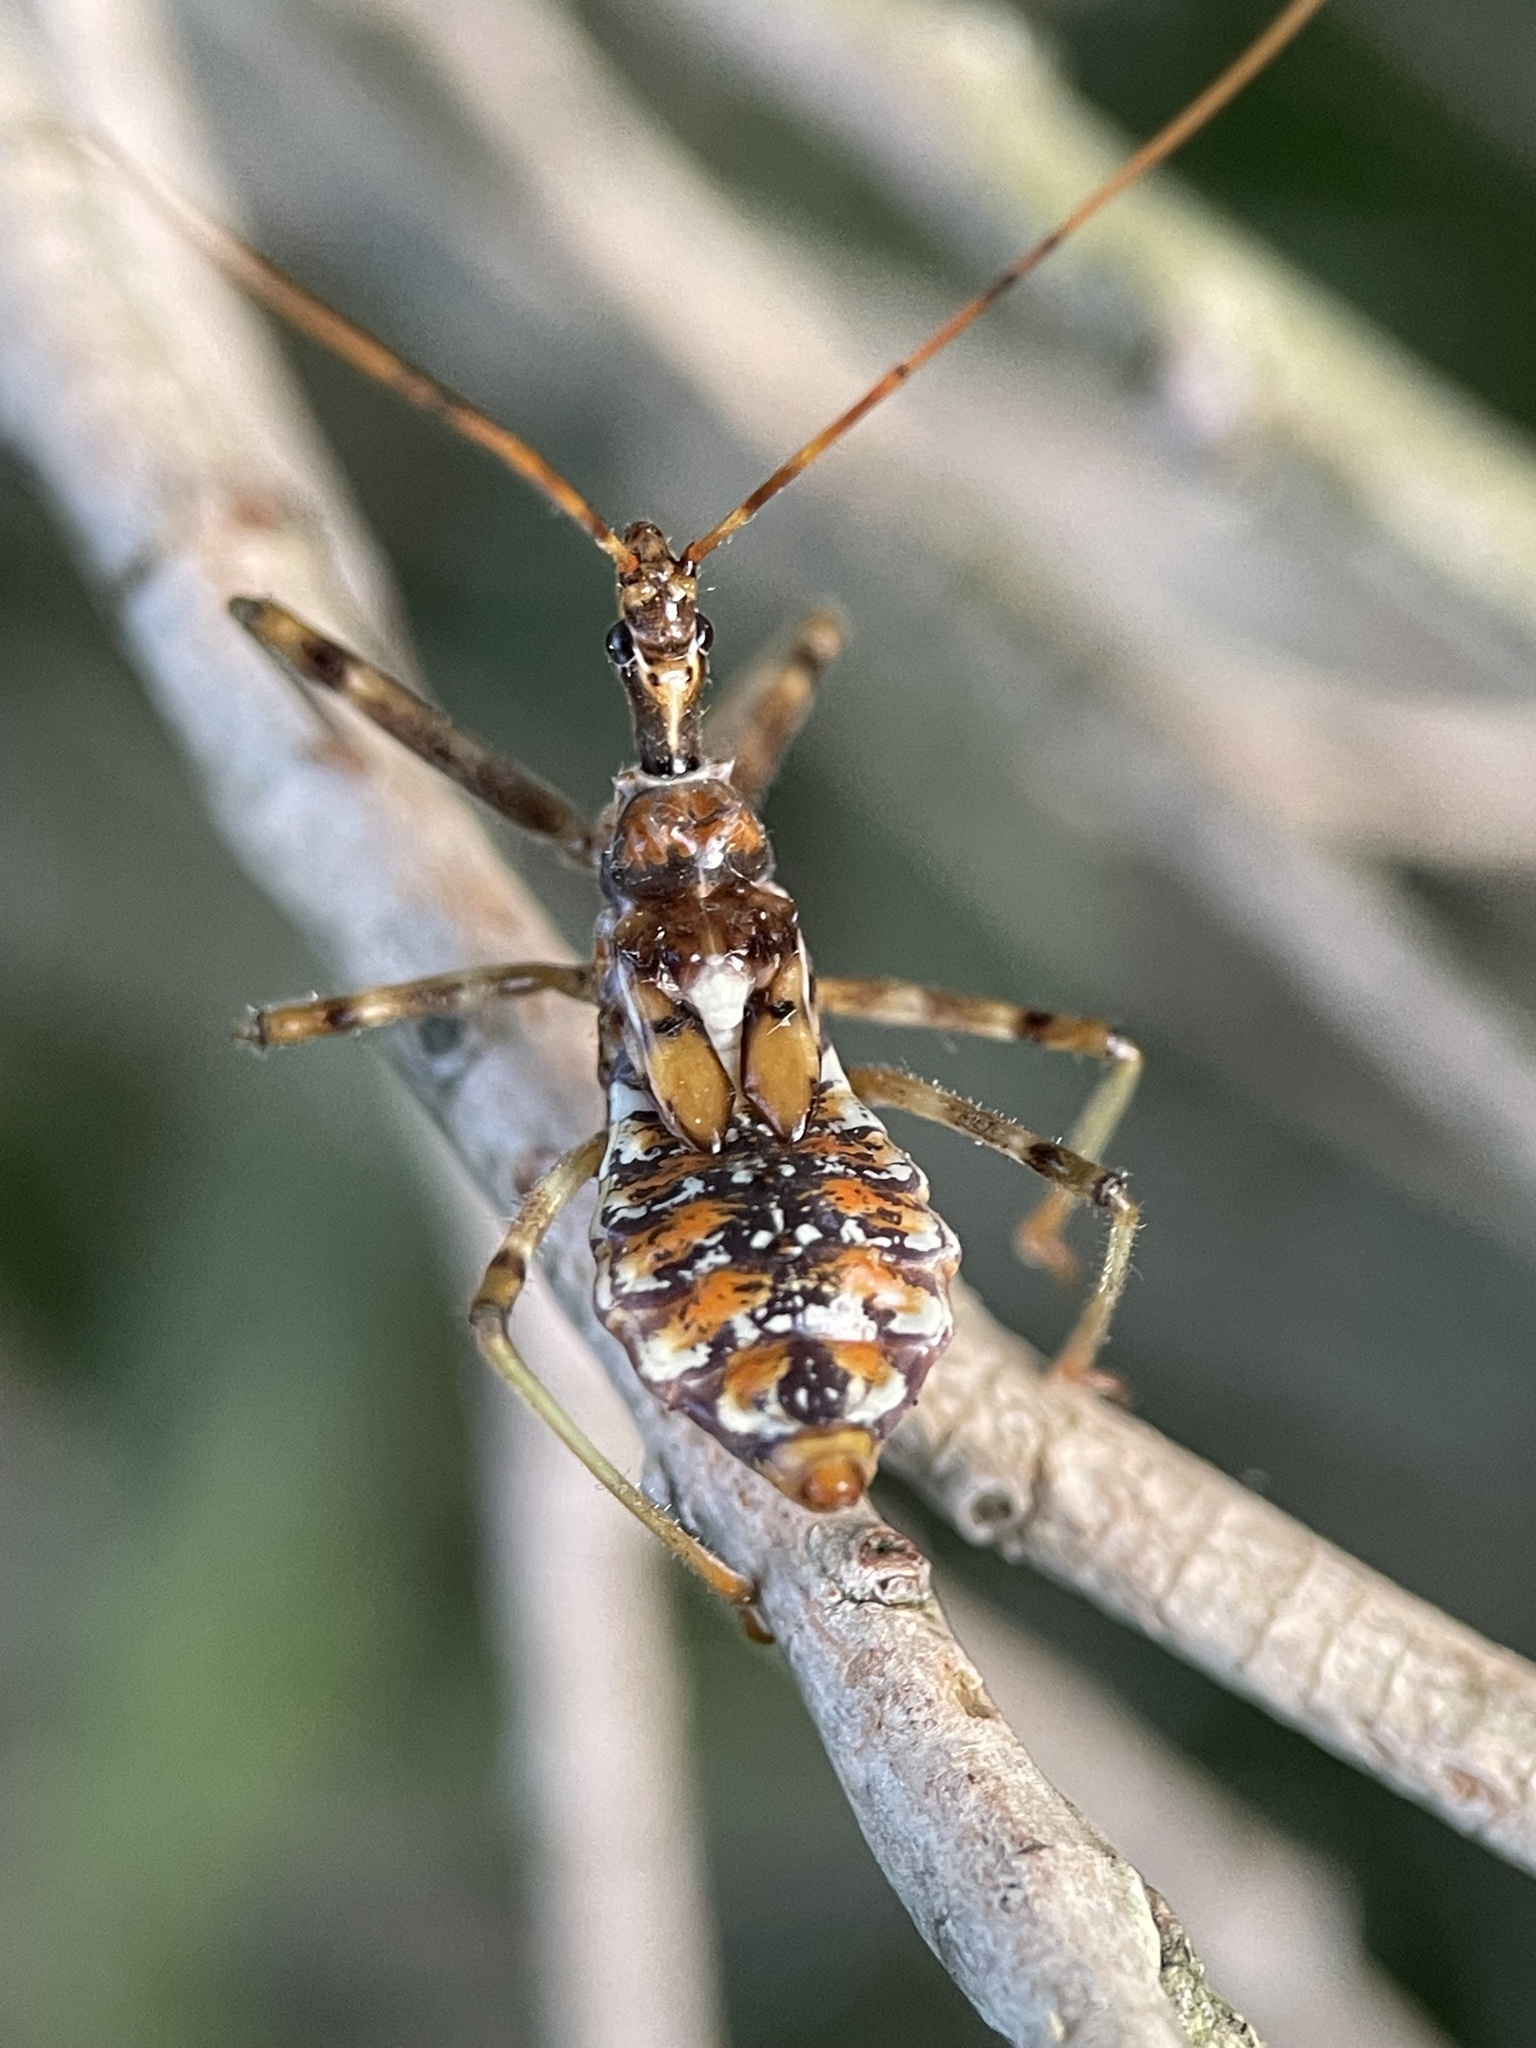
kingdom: Animalia
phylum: Arthropoda
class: Insecta
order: Hemiptera
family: Reduviidae
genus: Pristhesancus
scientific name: Pristhesancus plagipennis
